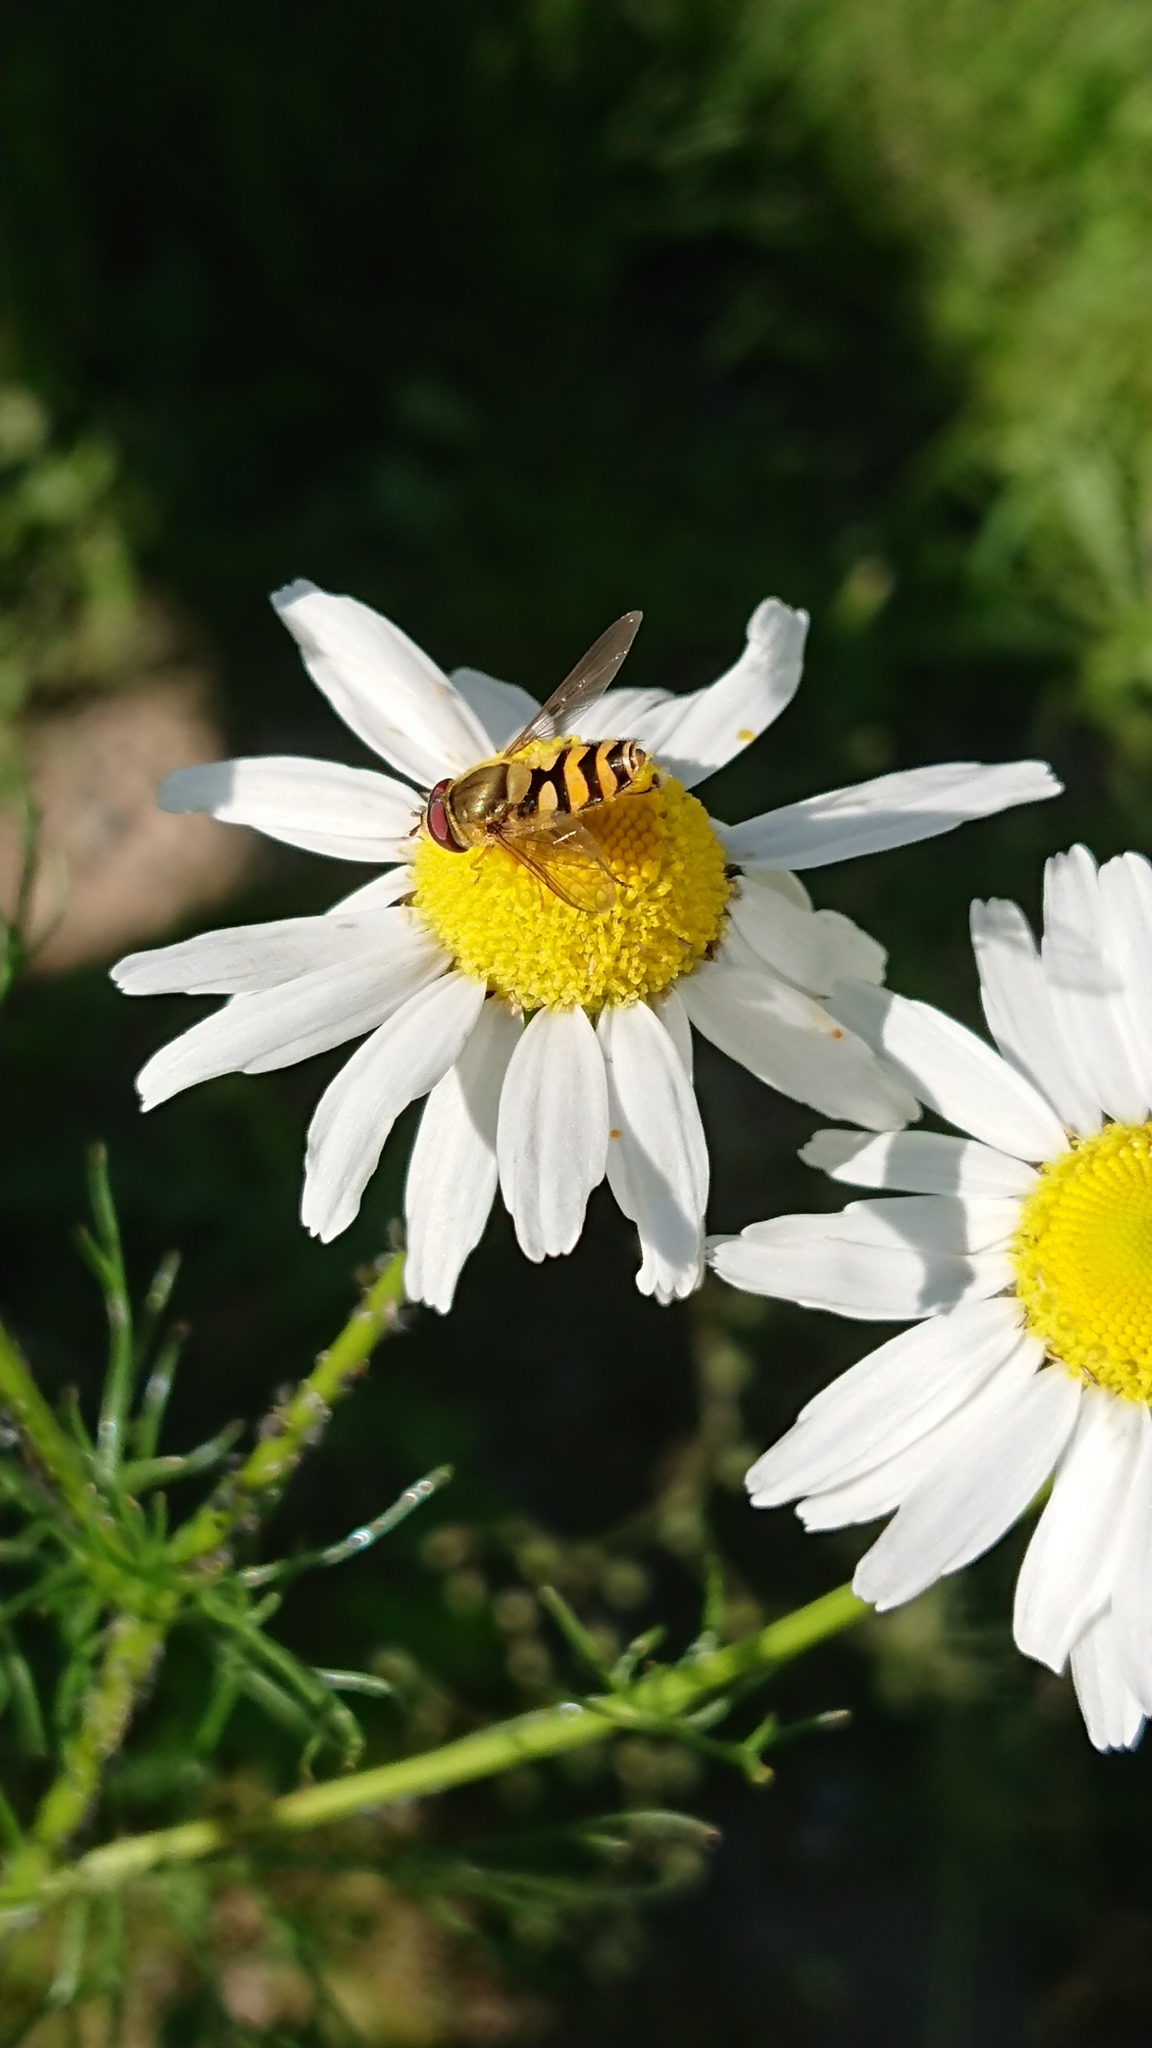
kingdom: Animalia
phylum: Arthropoda
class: Insecta
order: Diptera
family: Syrphidae
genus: Syrphus
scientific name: Syrphus
